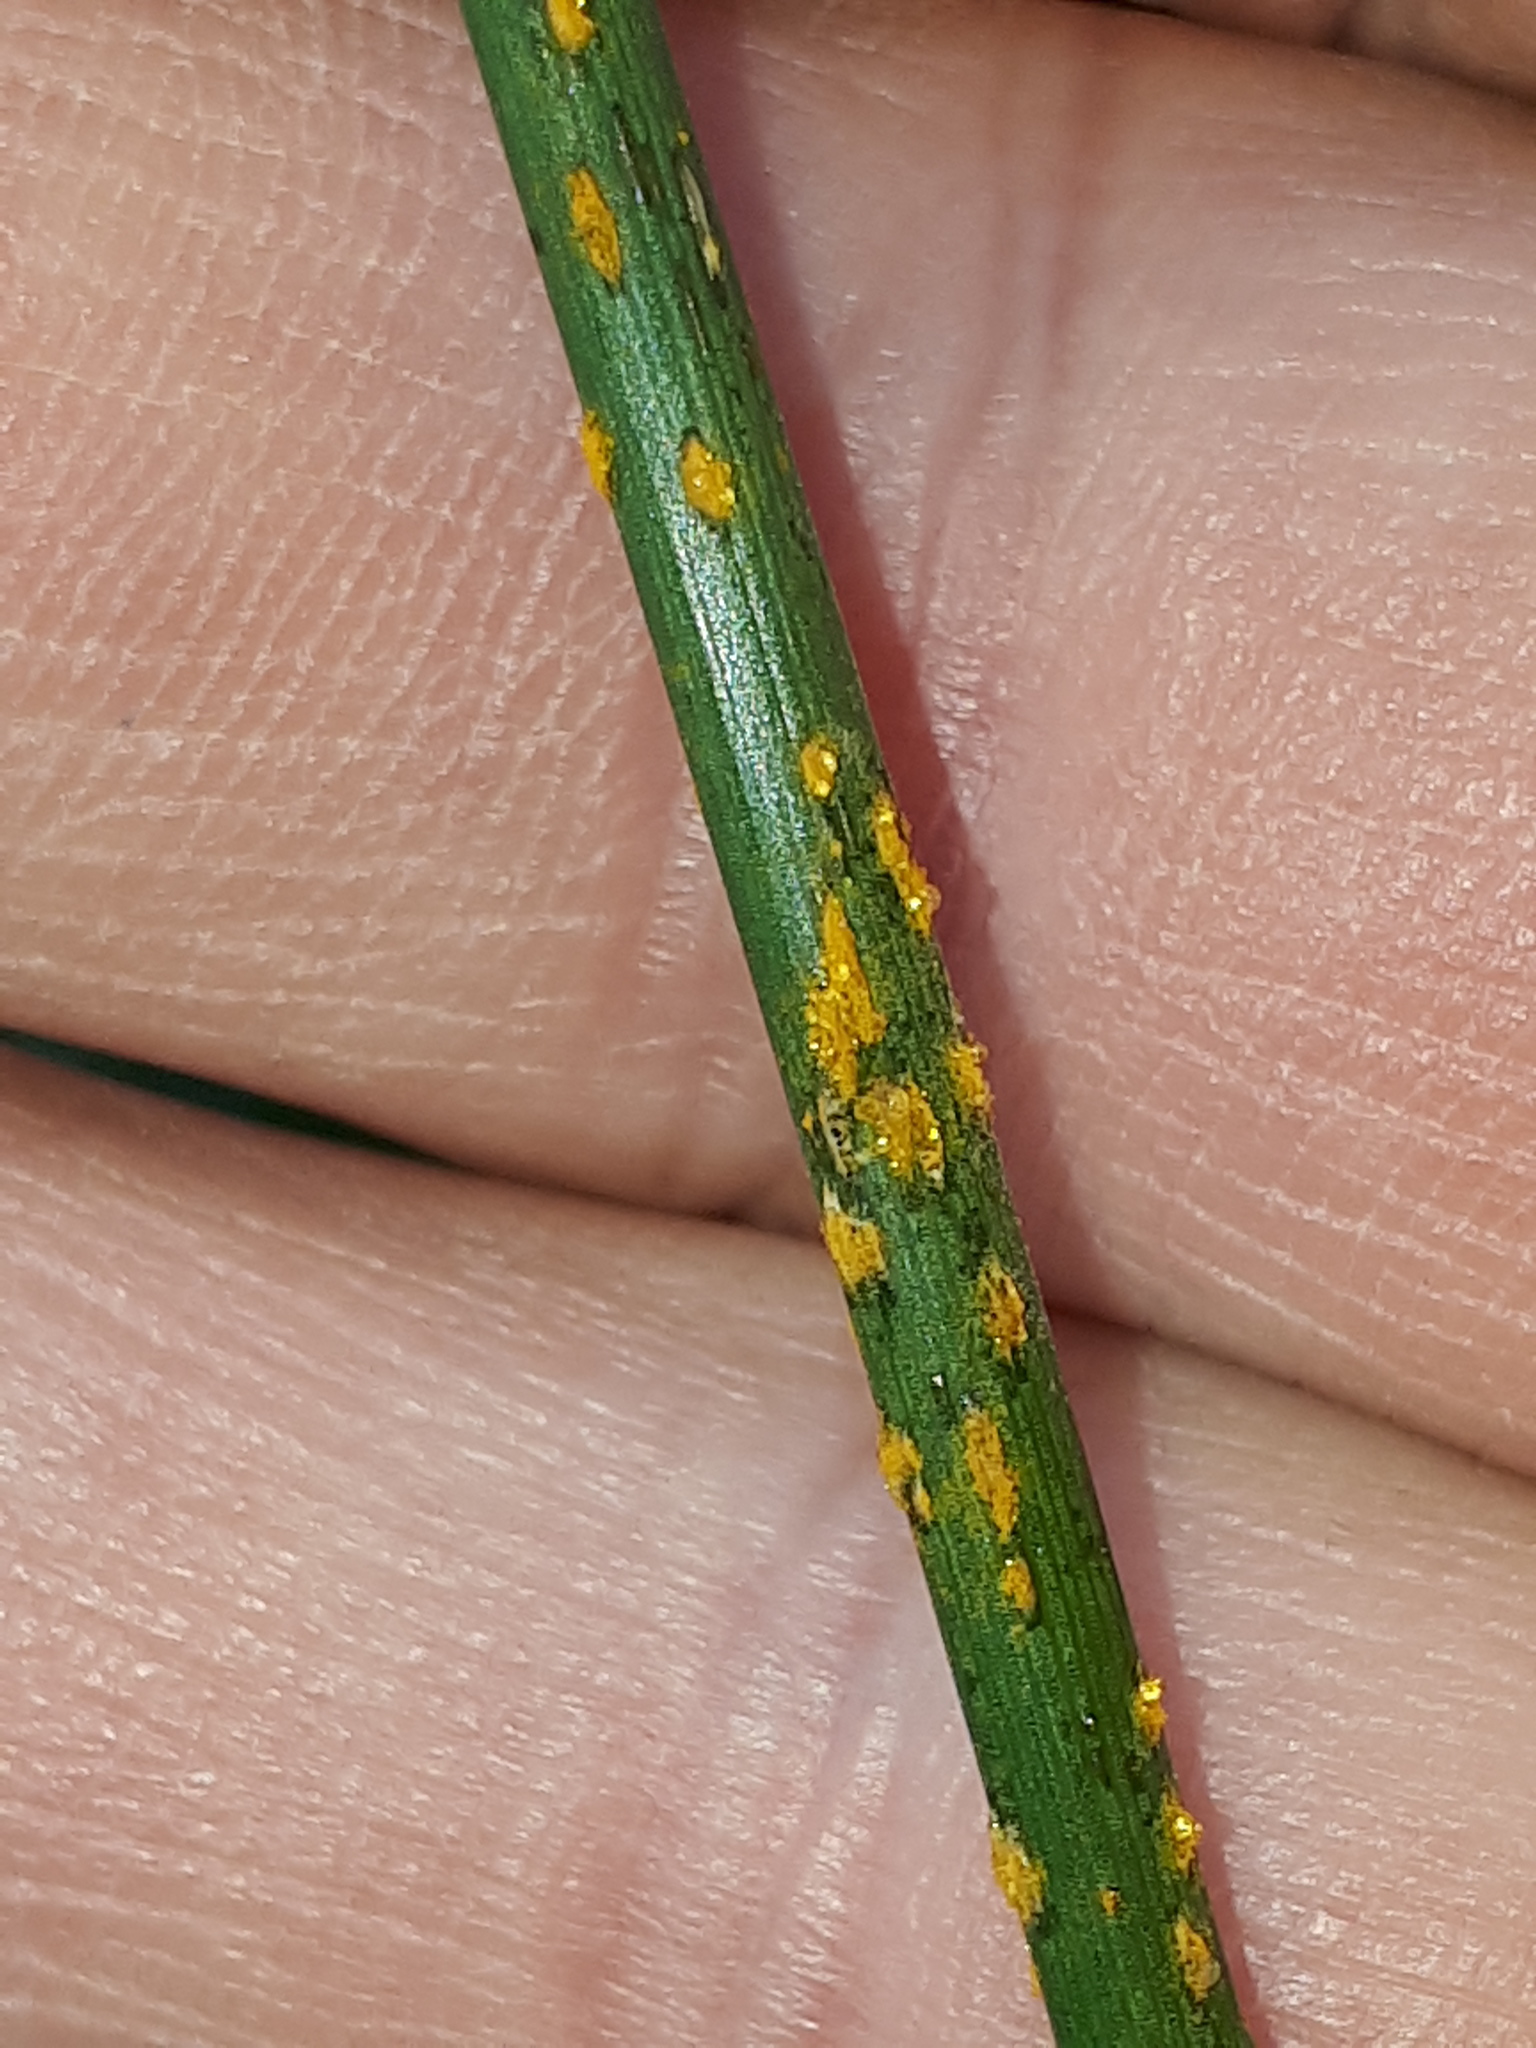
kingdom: Fungi
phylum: Basidiomycota
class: Pucciniomycetes
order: Pucciniales
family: Pucciniaceae
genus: Puccinia
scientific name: Puccinia coronata
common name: Crown rust
